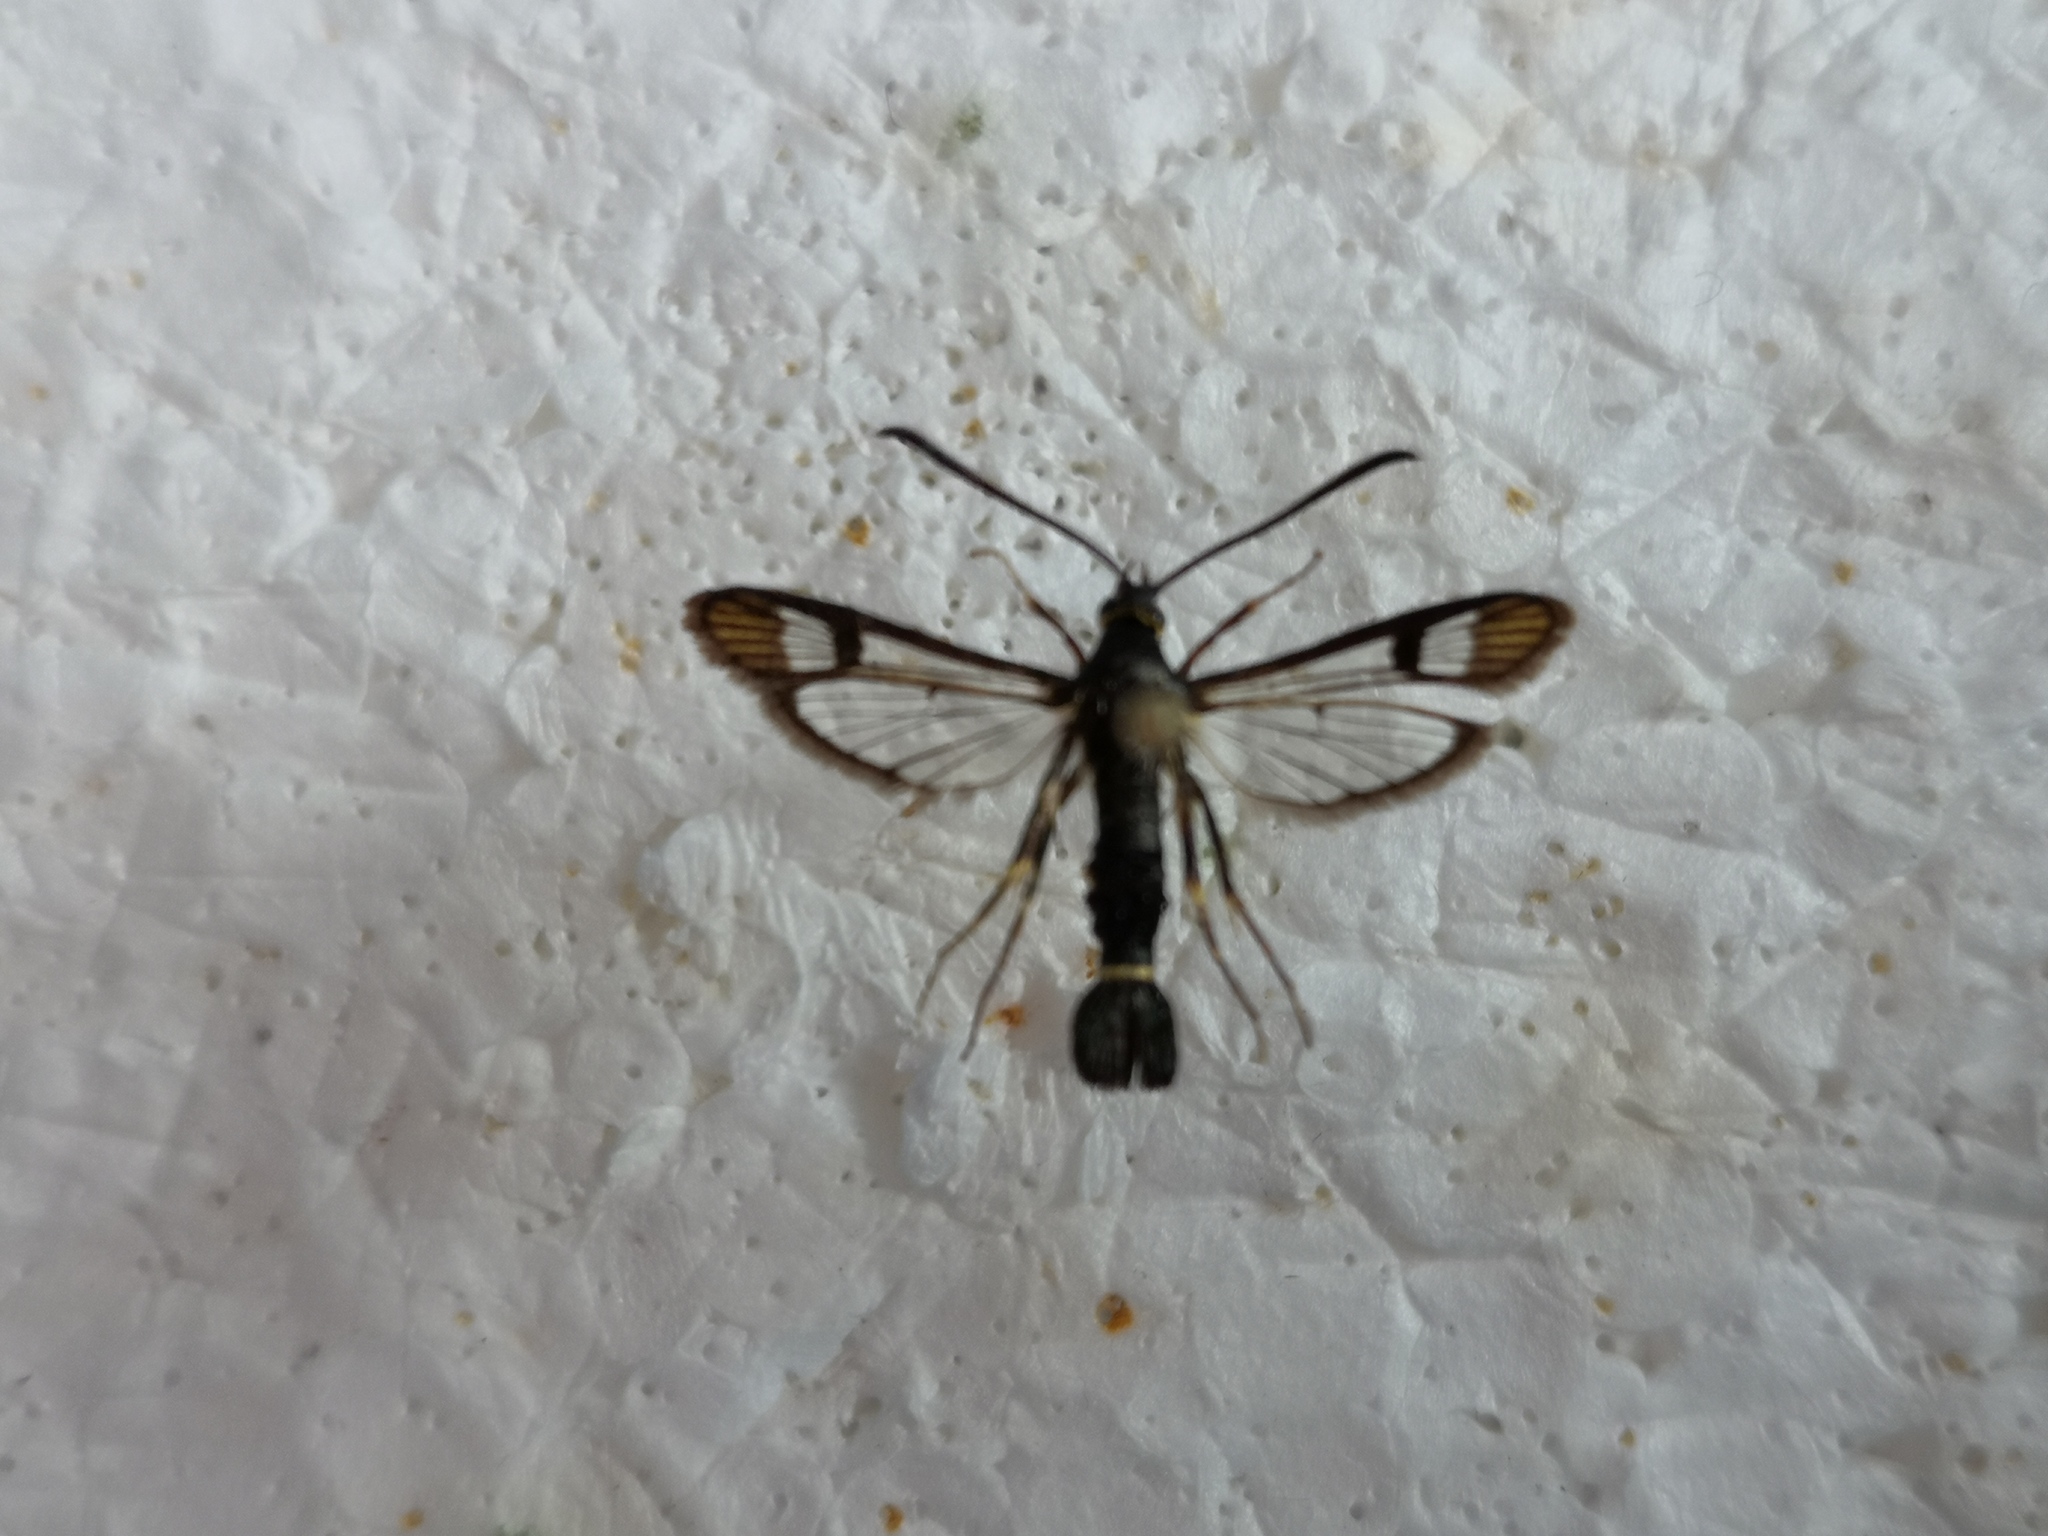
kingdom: Animalia
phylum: Arthropoda
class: Insecta
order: Lepidoptera
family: Sesiidae
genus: Synanthedon
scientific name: Synanthedon tipuliformis
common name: Currant clearwing
